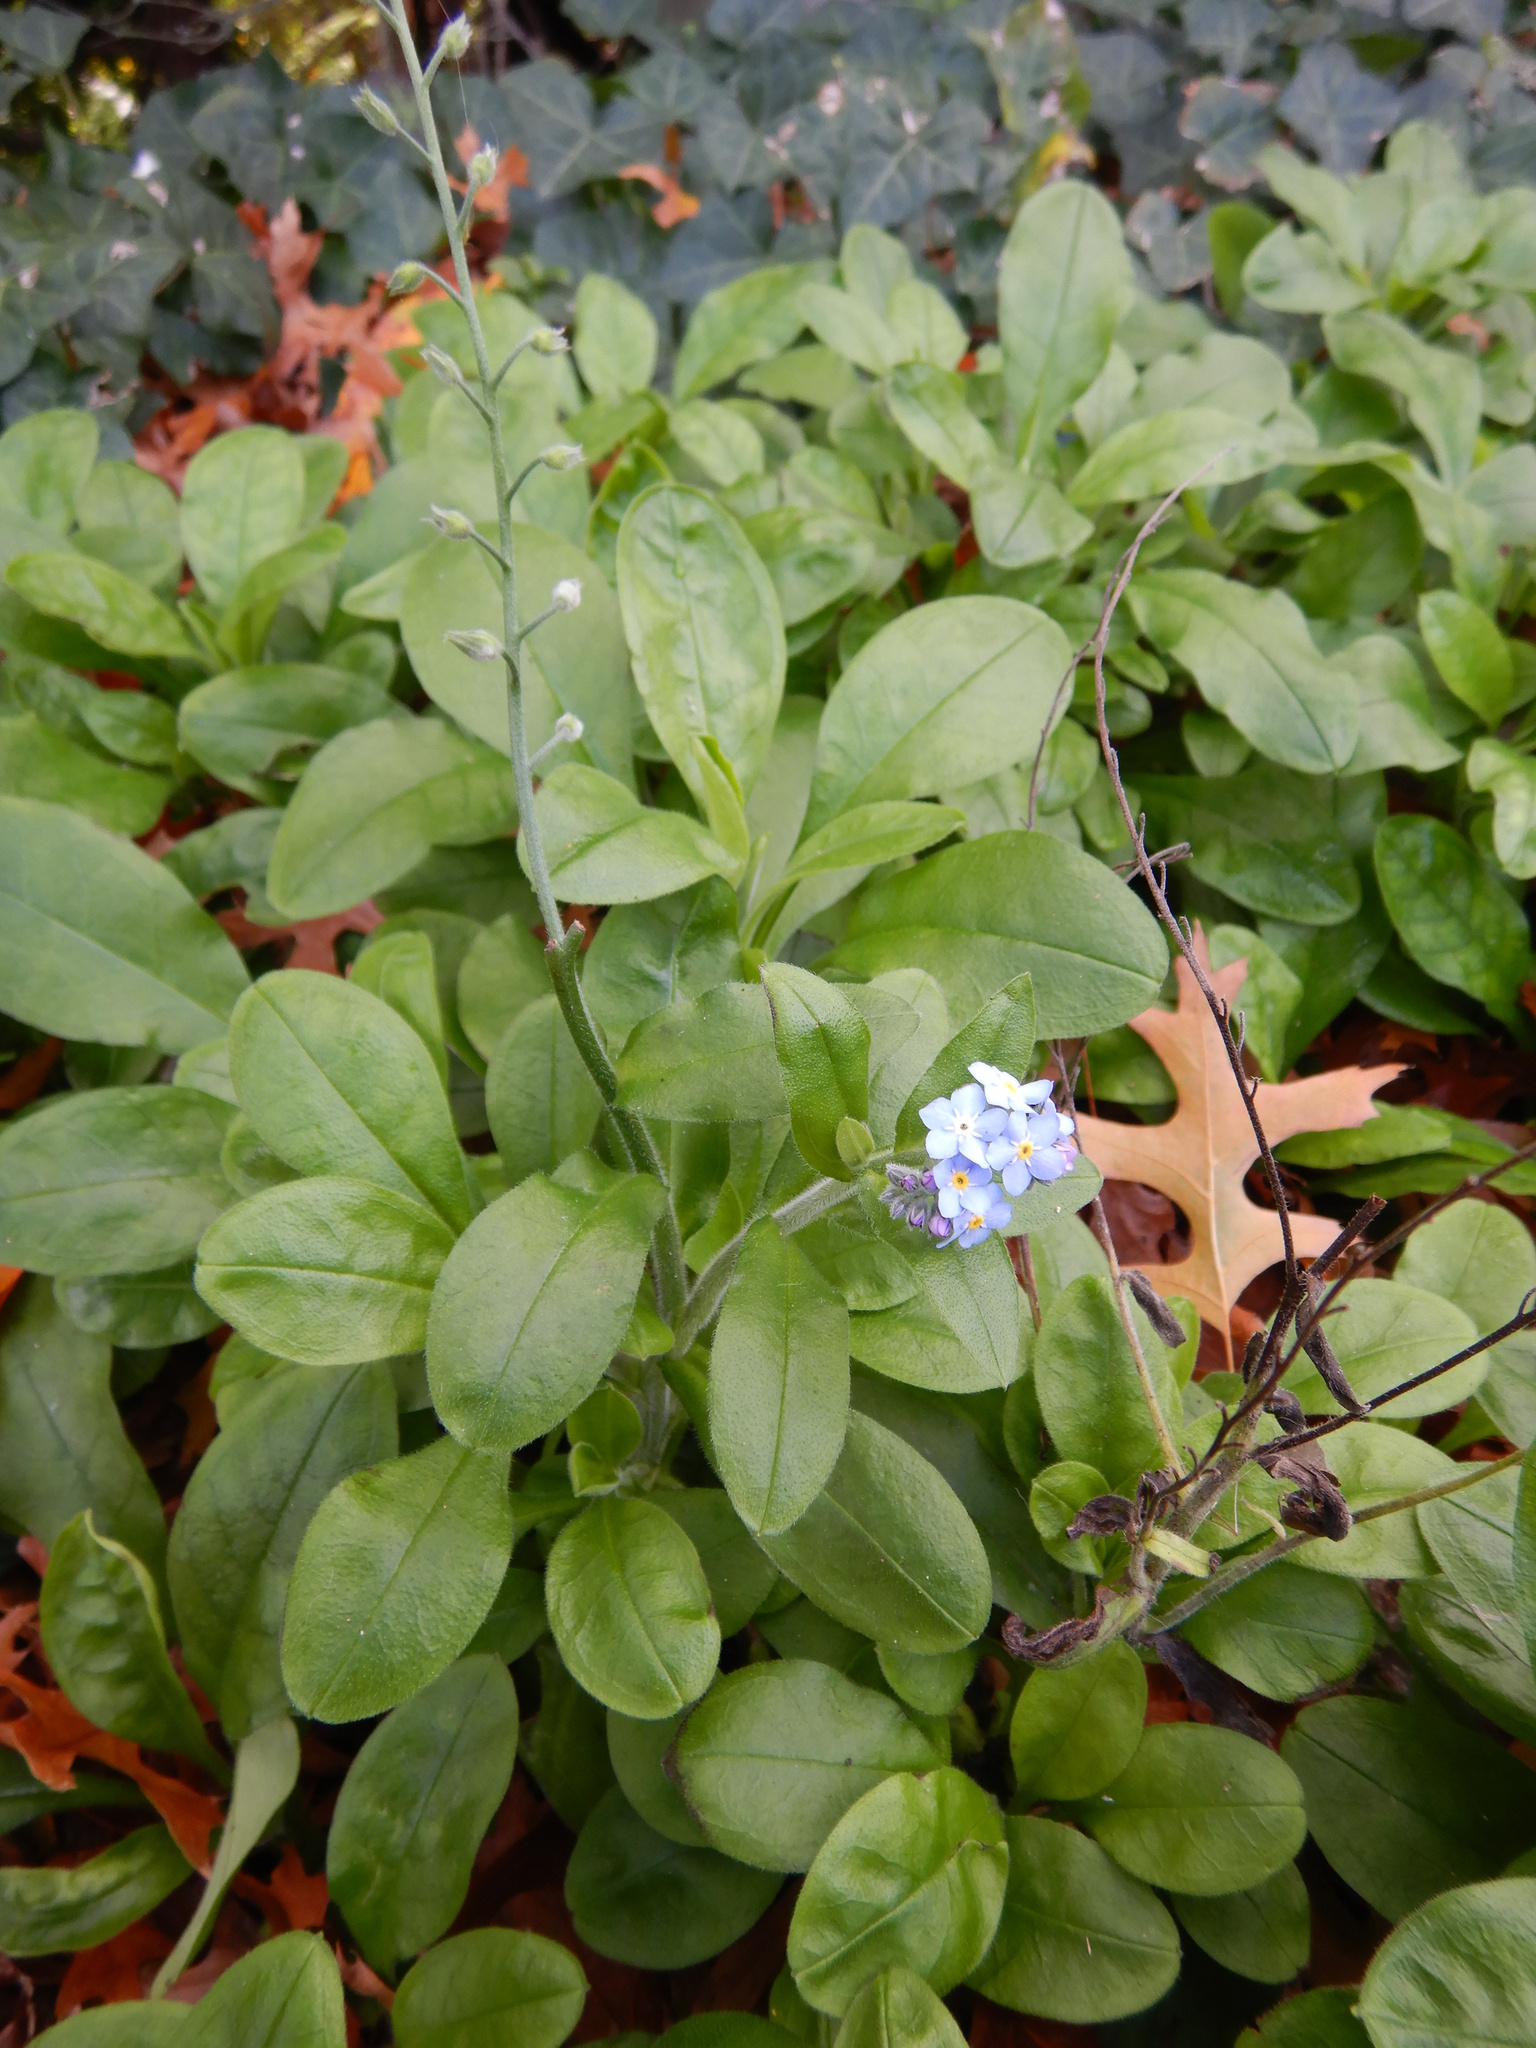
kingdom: Plantae
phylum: Tracheophyta
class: Magnoliopsida
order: Boraginales
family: Boraginaceae
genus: Myosotis
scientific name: Myosotis sylvatica
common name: Wood forget-me-not
